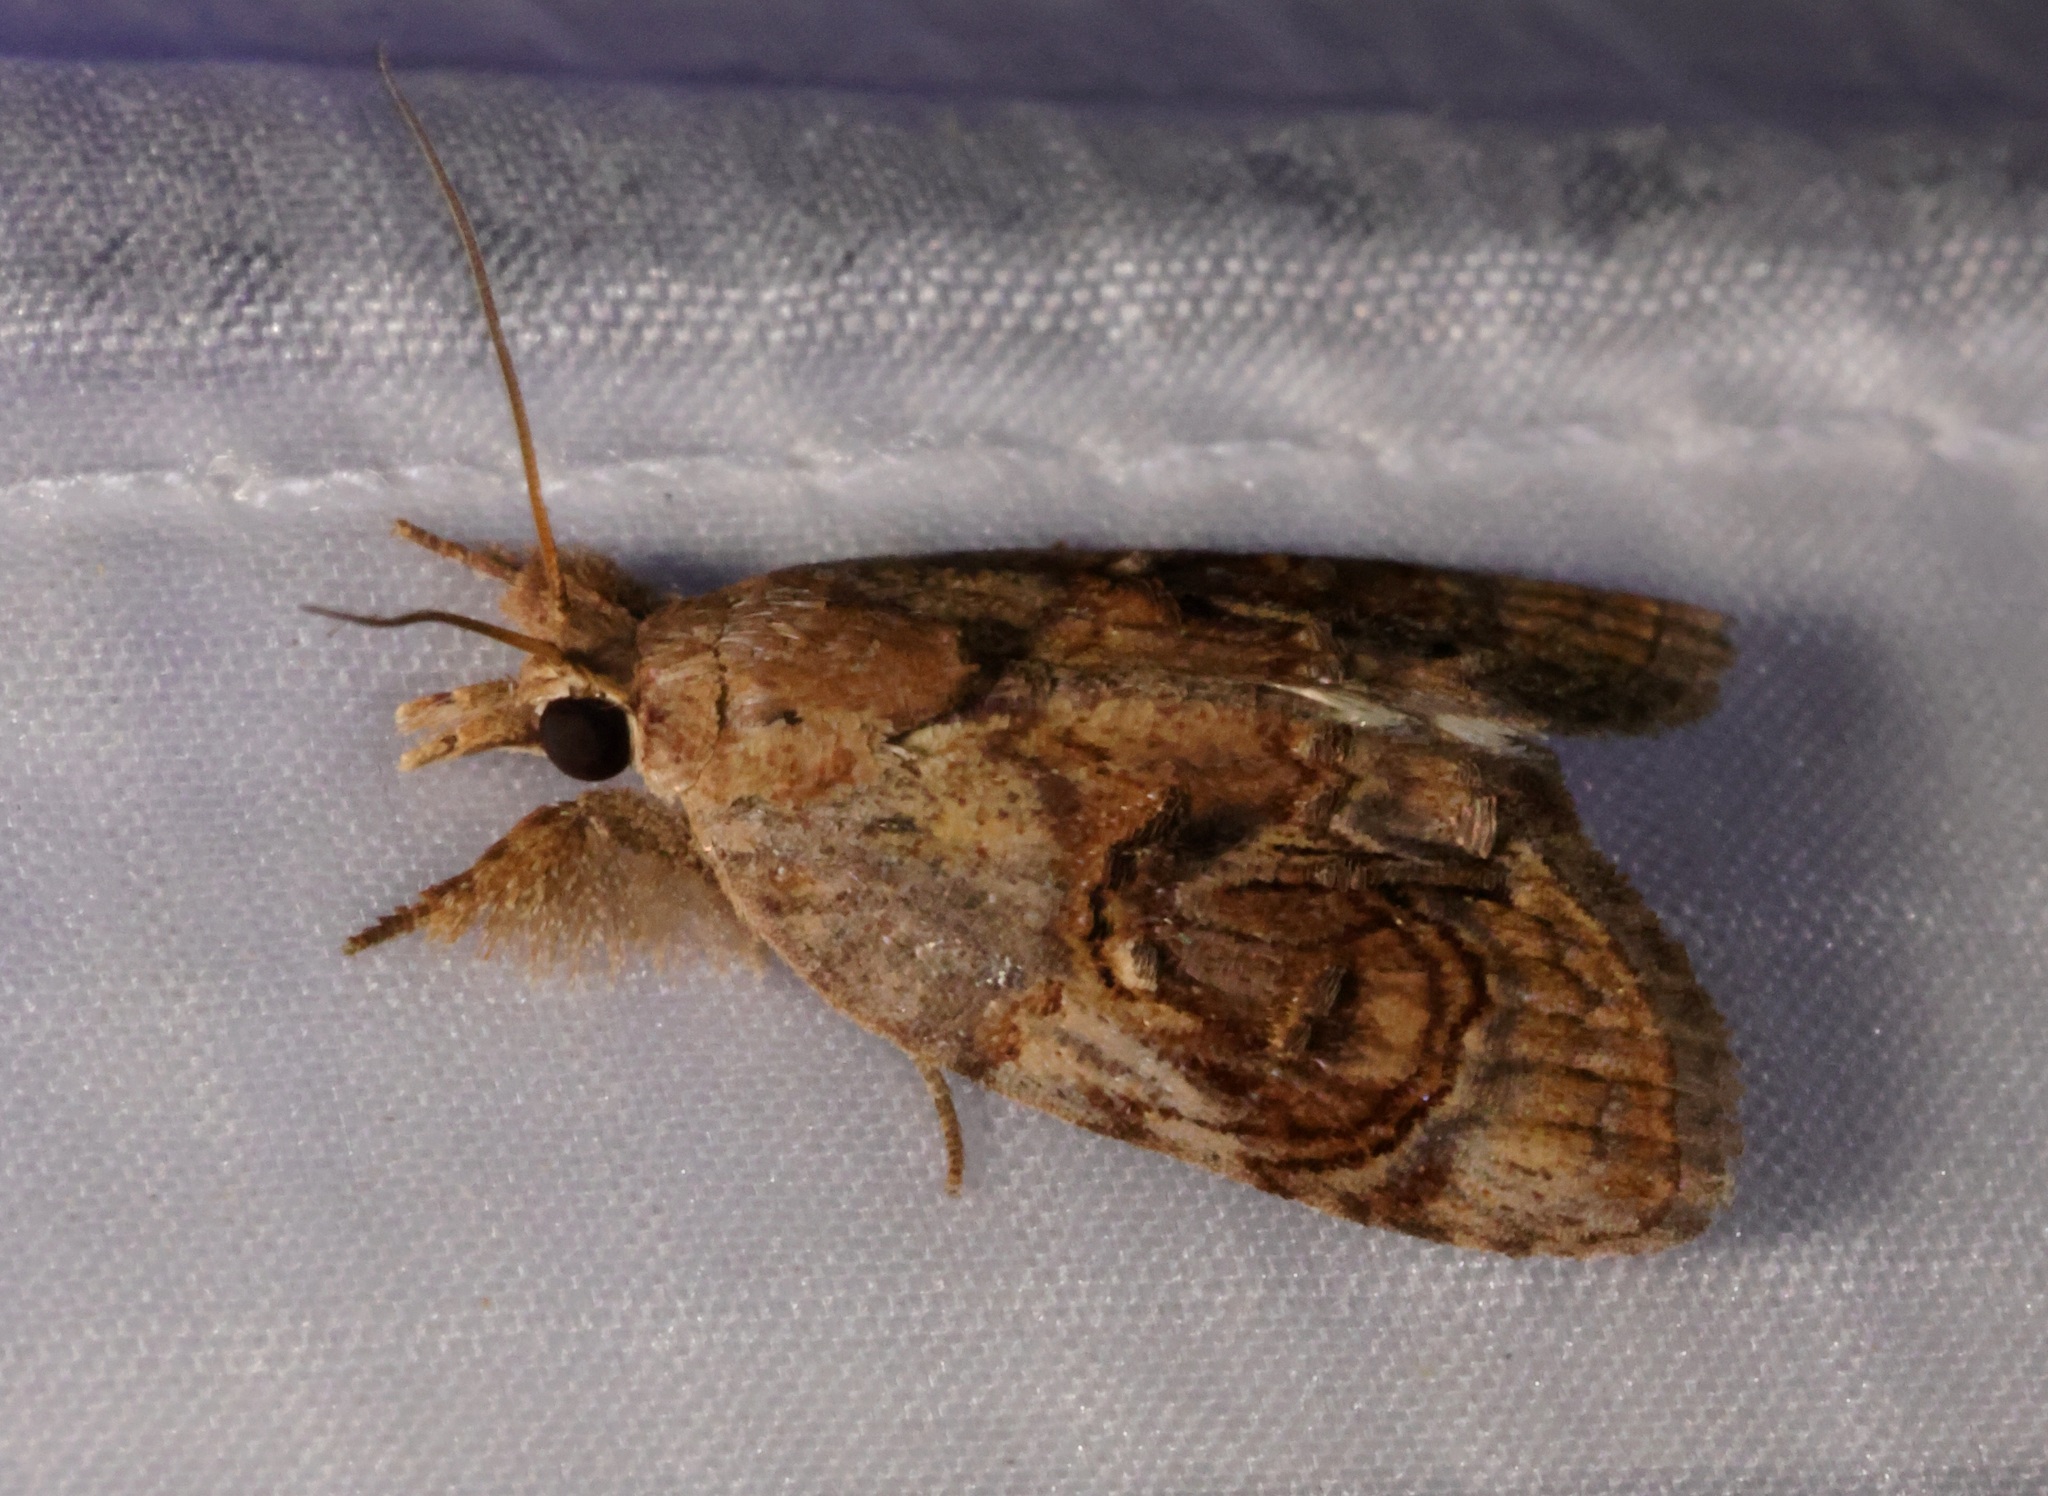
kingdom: Animalia
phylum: Arthropoda
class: Insecta
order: Lepidoptera
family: Nolidae
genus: Selepa
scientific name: Selepa celtis
